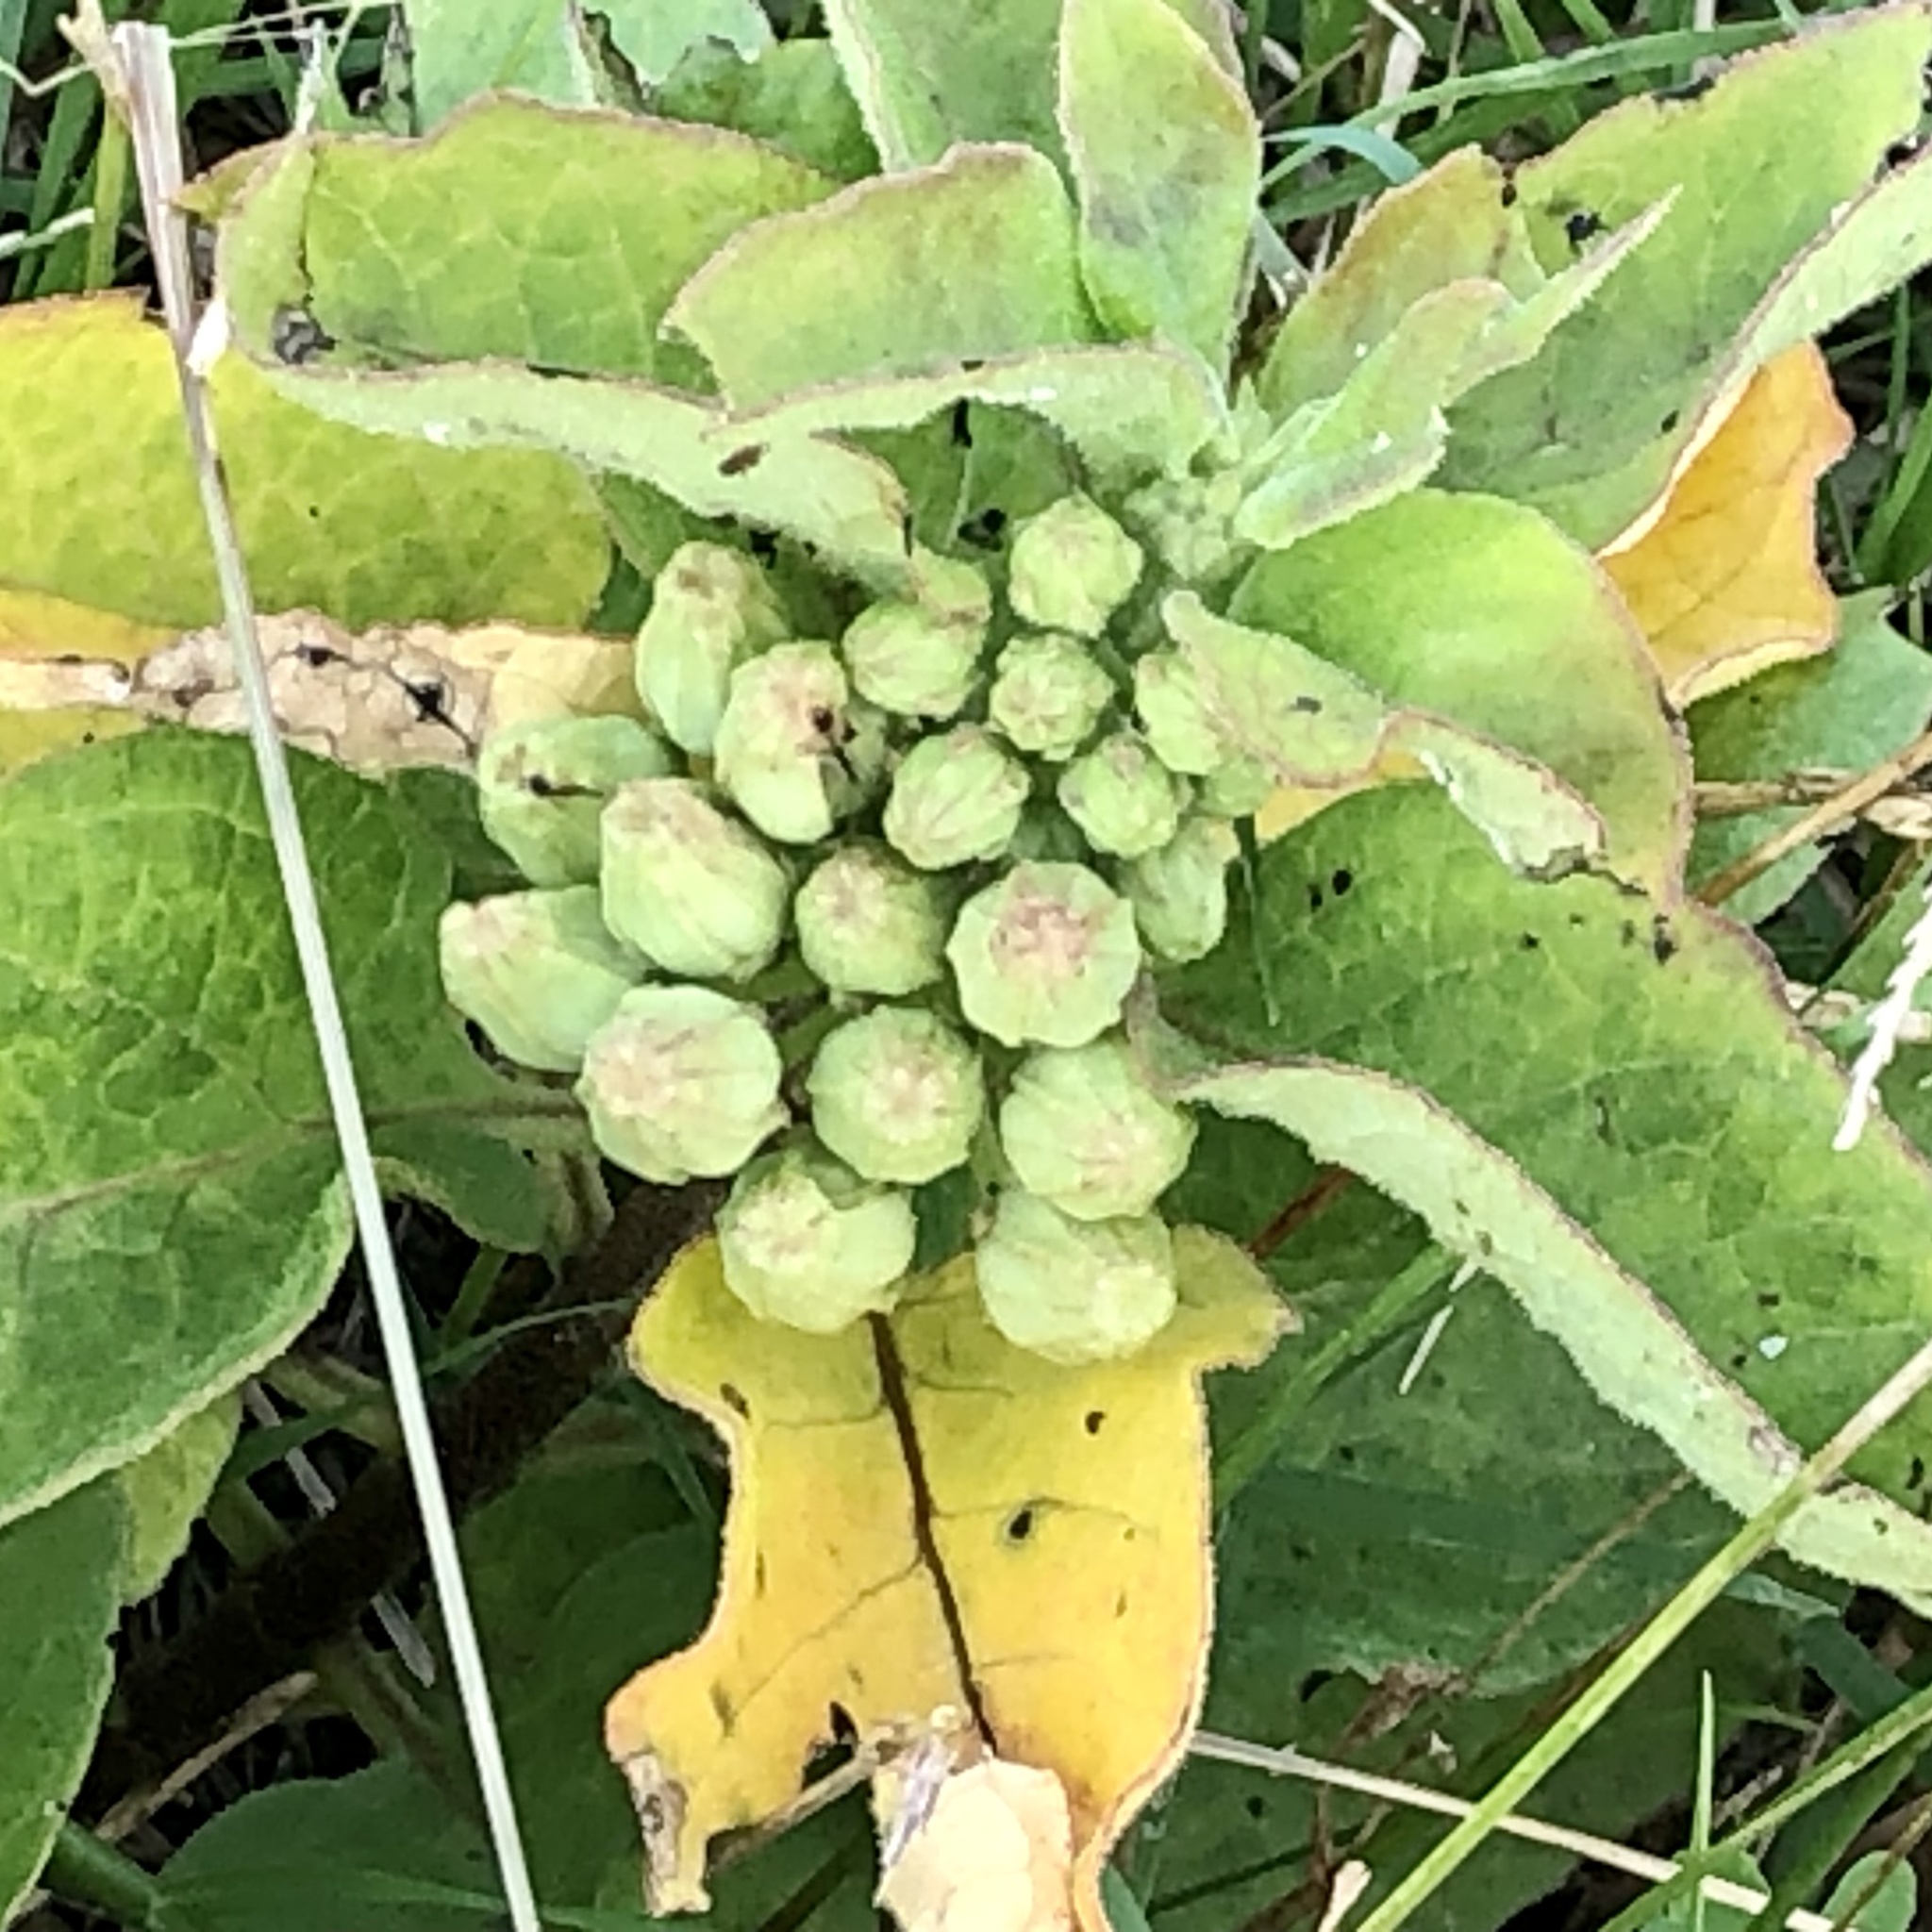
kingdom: Plantae
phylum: Tracheophyta
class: Magnoliopsida
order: Gentianales
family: Apocynaceae
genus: Asclepias
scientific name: Asclepias oenotheroides
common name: Zizotes milkweed
